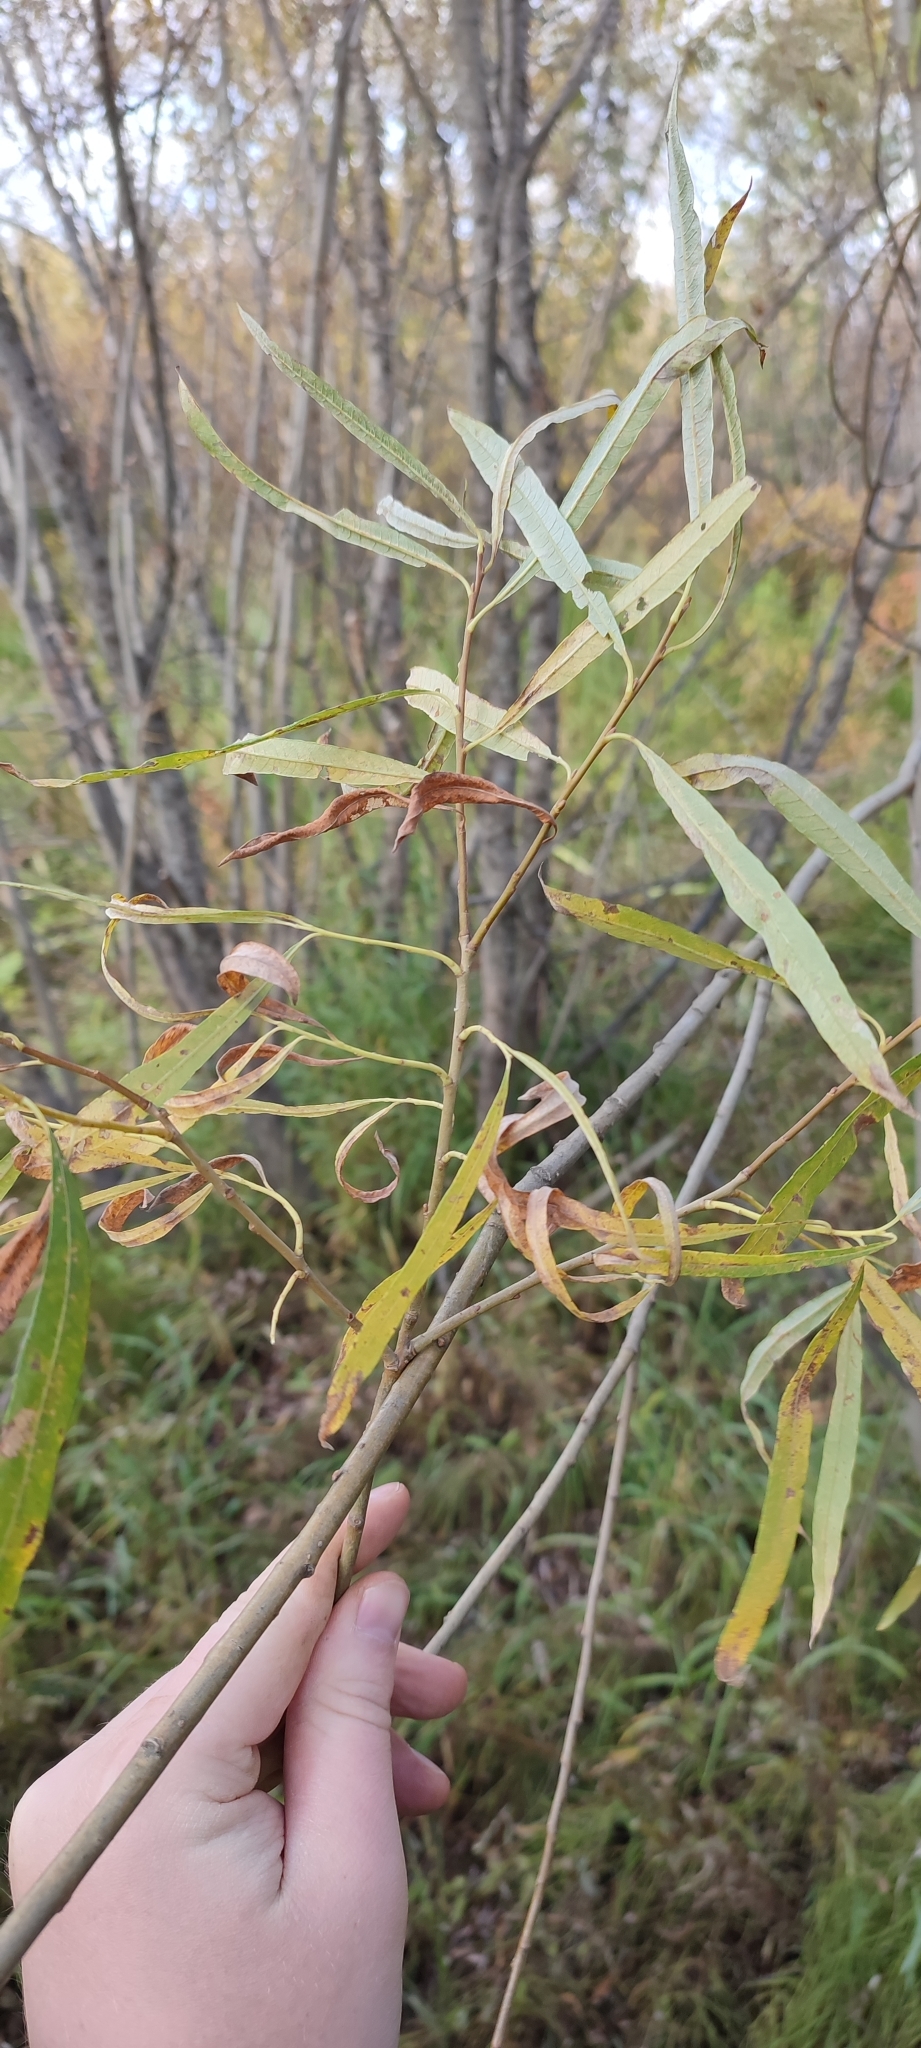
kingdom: Plantae
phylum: Tracheophyta
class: Magnoliopsida
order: Malpighiales
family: Salicaceae
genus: Salix
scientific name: Salix viminalis
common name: Osier
